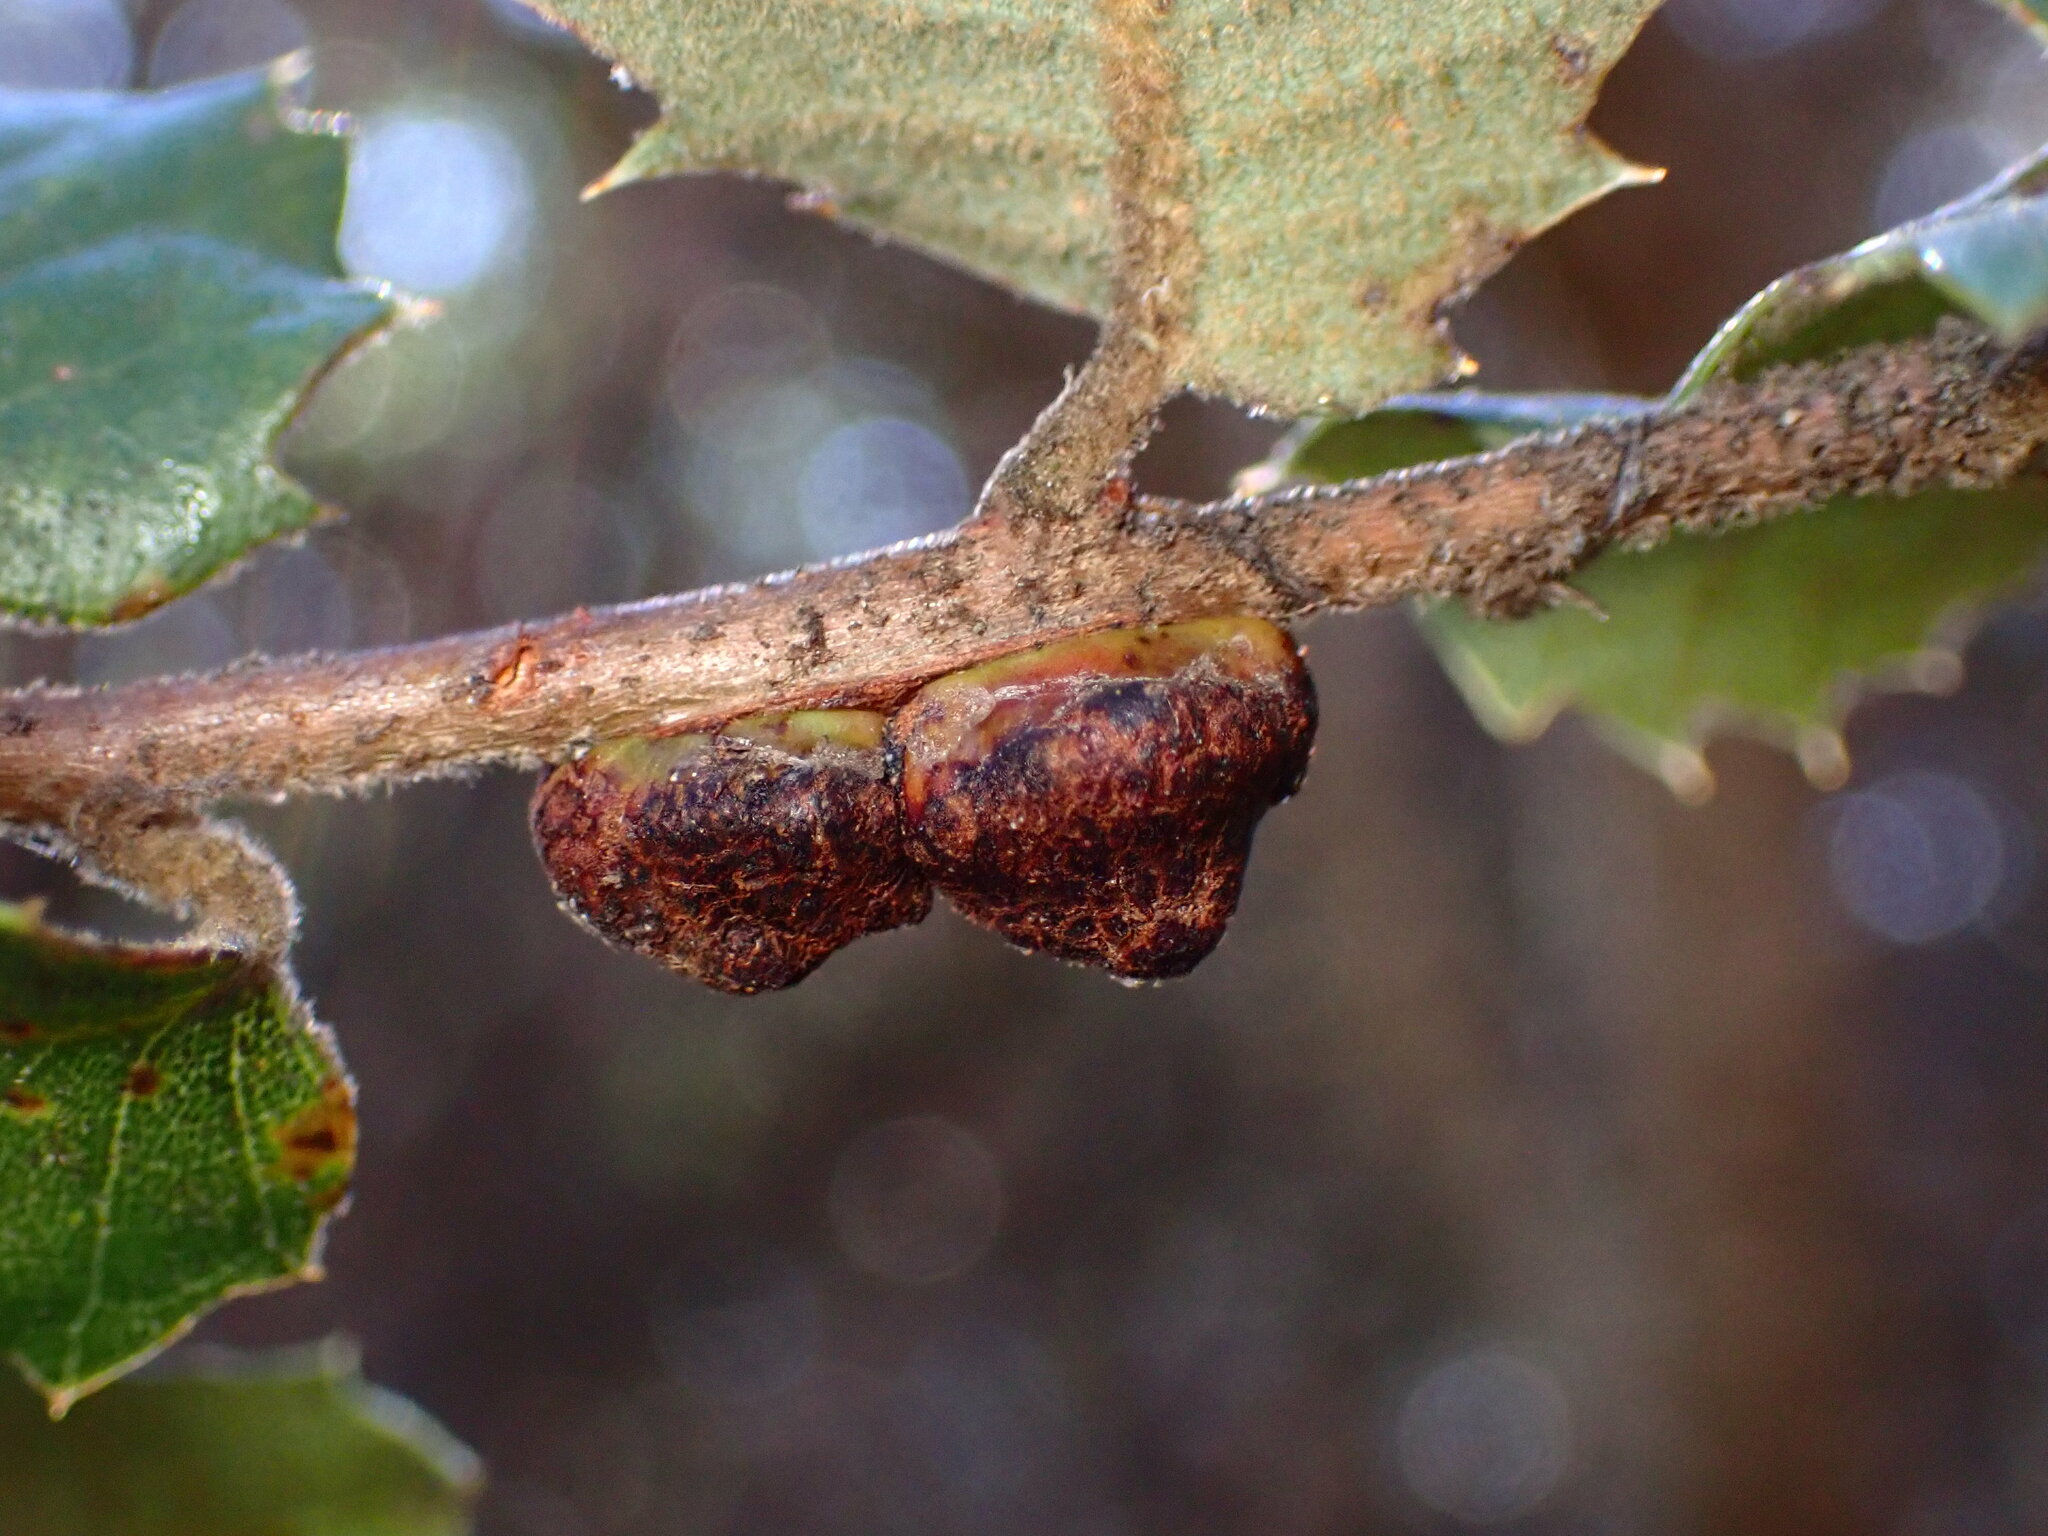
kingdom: Animalia
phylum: Arthropoda
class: Insecta
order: Hymenoptera
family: Cynipidae
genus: Disholandricus
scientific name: Disholandricus
